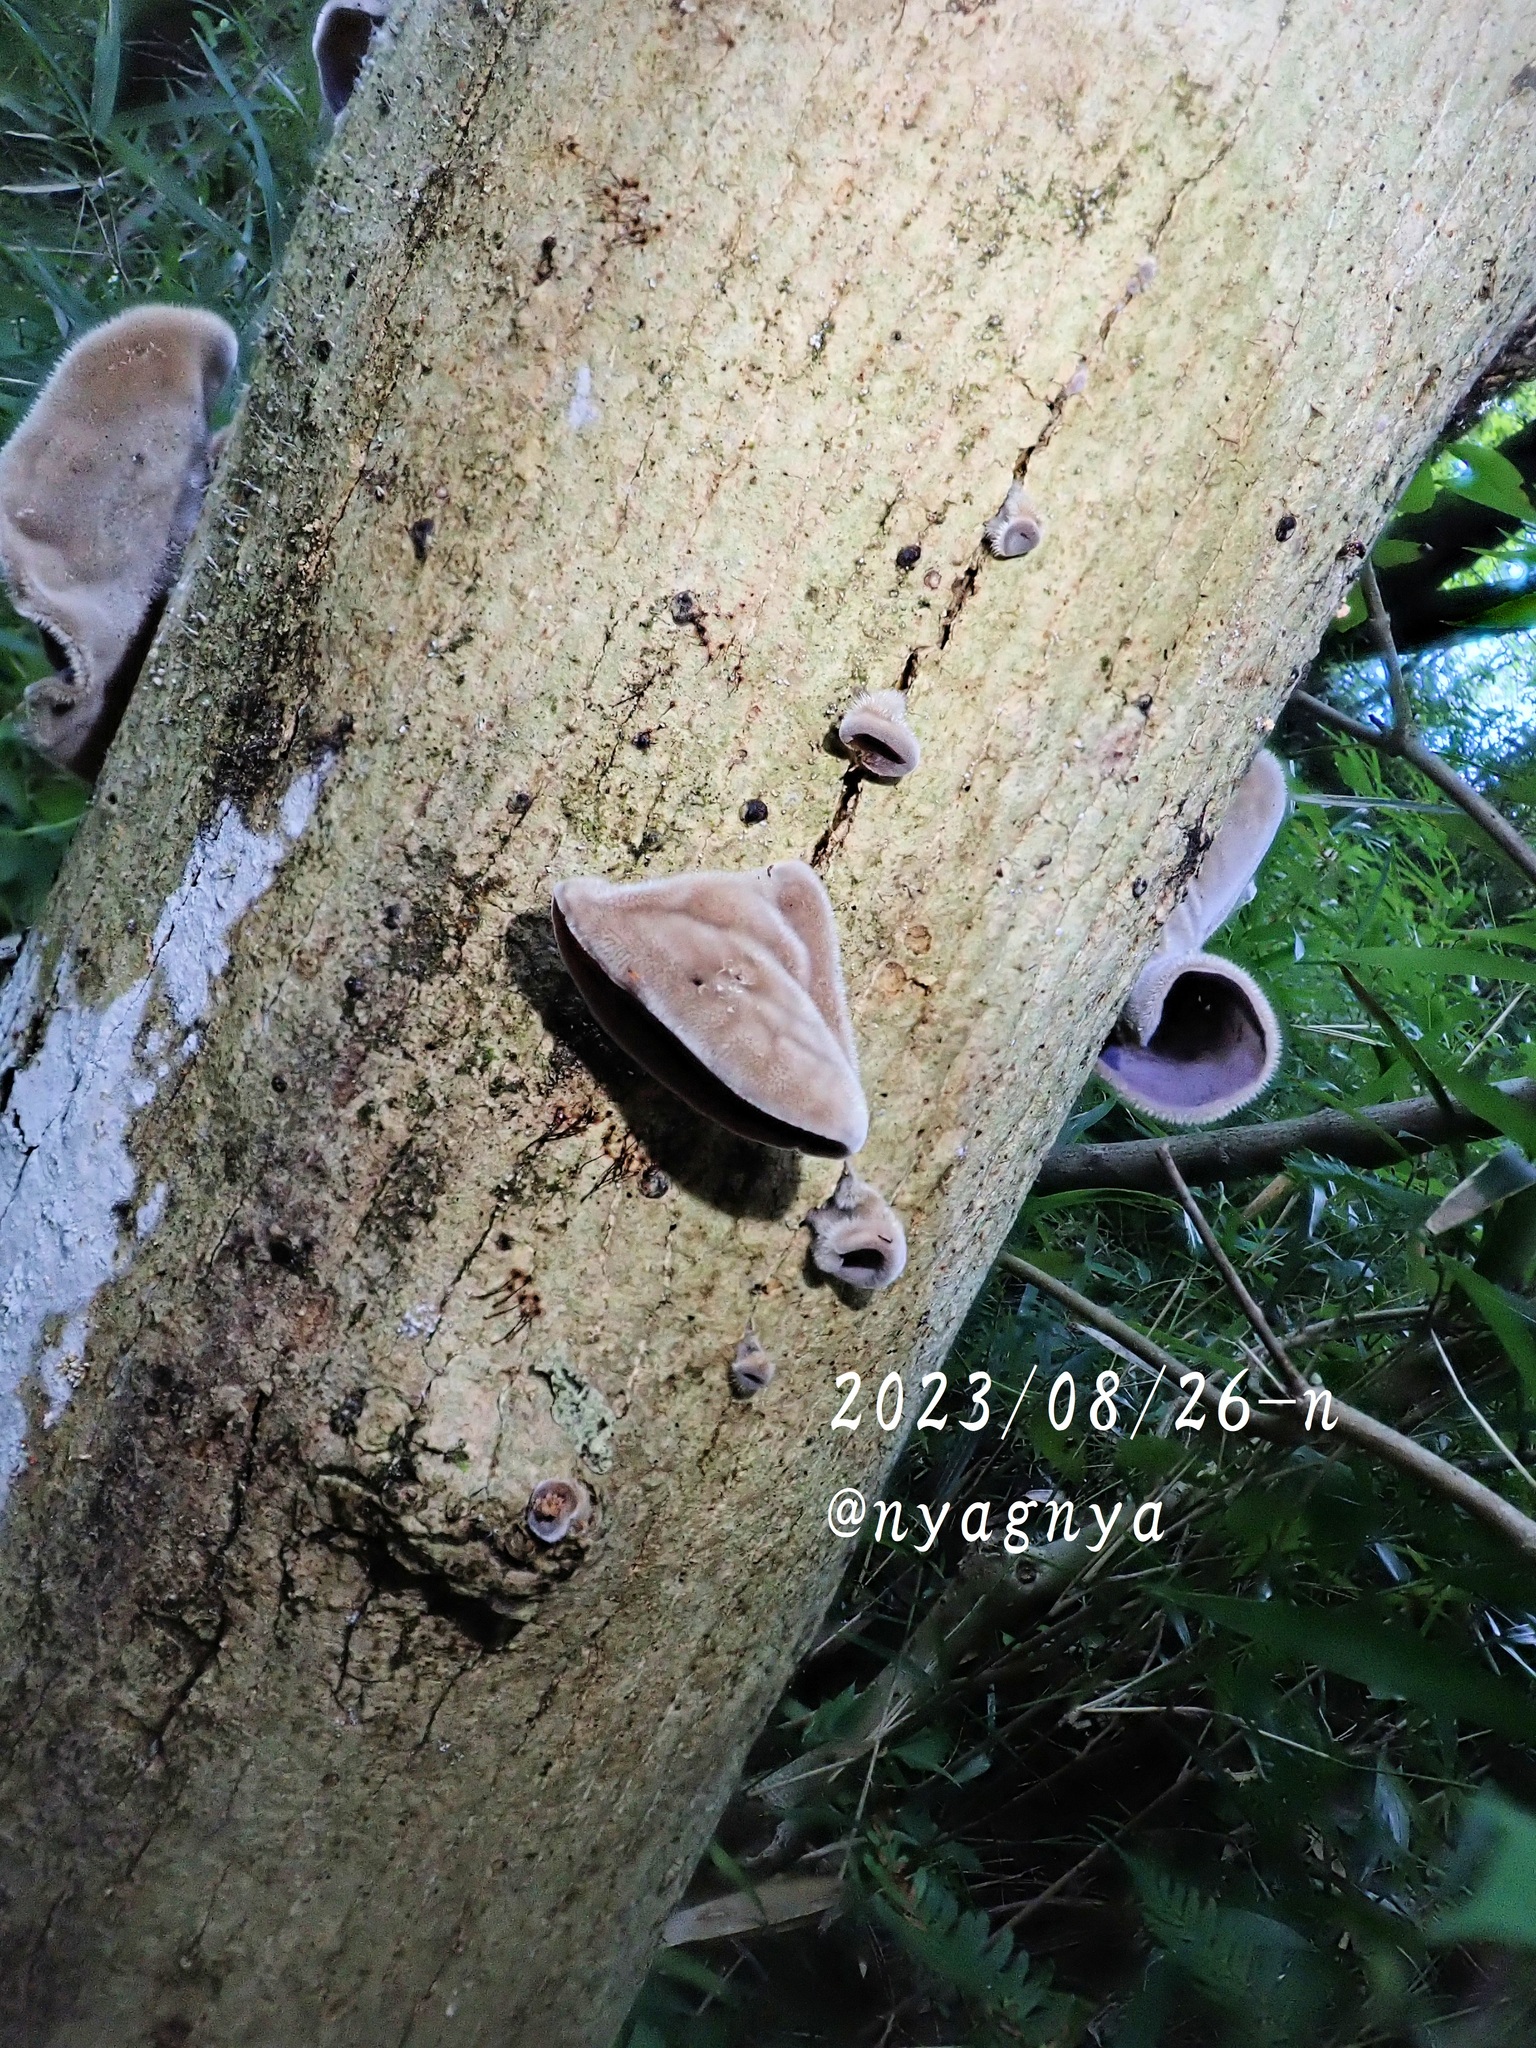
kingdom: Fungi
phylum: Basidiomycota
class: Agaricomycetes
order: Auriculariales
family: Auriculariaceae
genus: Auricularia
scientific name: Auricularia nigricans
